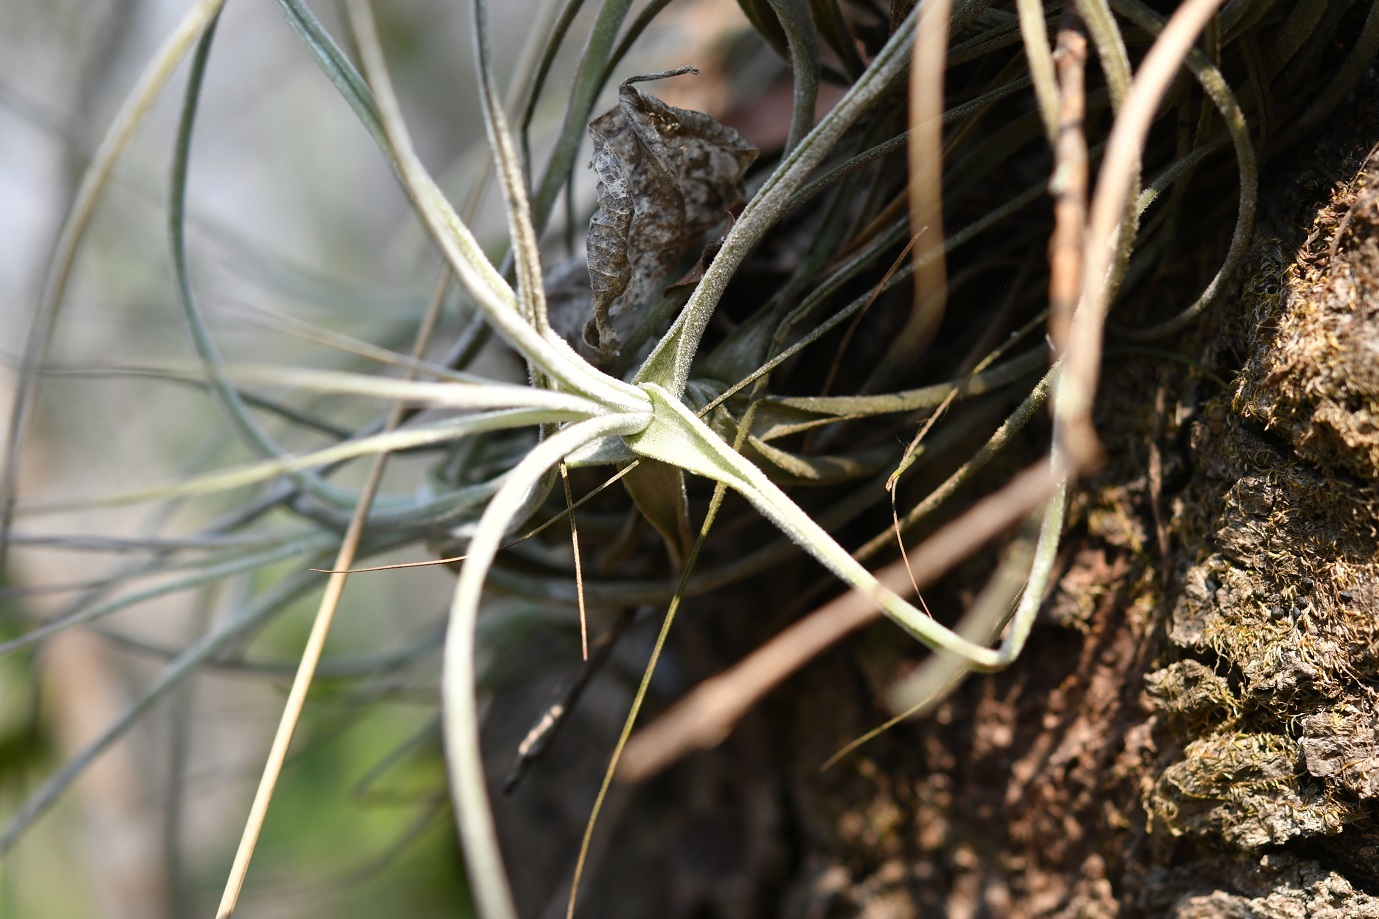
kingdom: Plantae
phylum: Tracheophyta
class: Liliopsida
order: Poales
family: Bromeliaceae
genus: Tillandsia
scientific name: Tillandsia schiedeana
